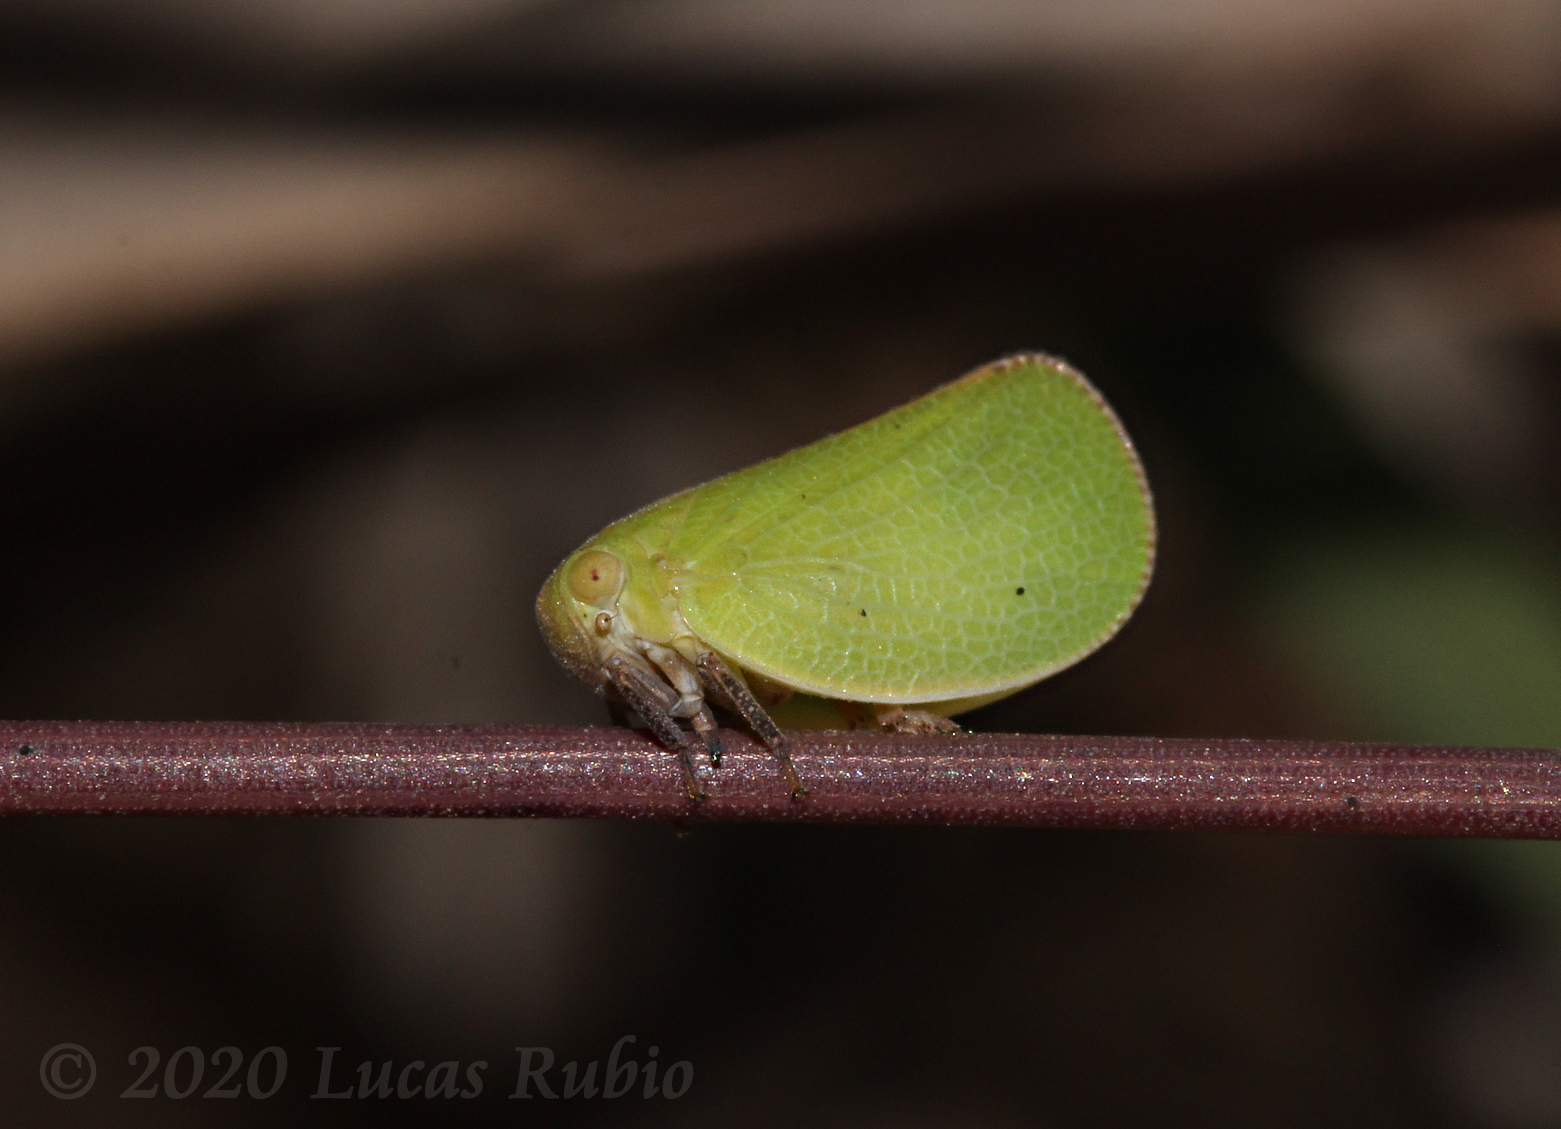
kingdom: Animalia
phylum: Arthropoda
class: Insecta
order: Hemiptera
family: Acanaloniidae
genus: Acanalonia
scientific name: Acanalonia chloris
